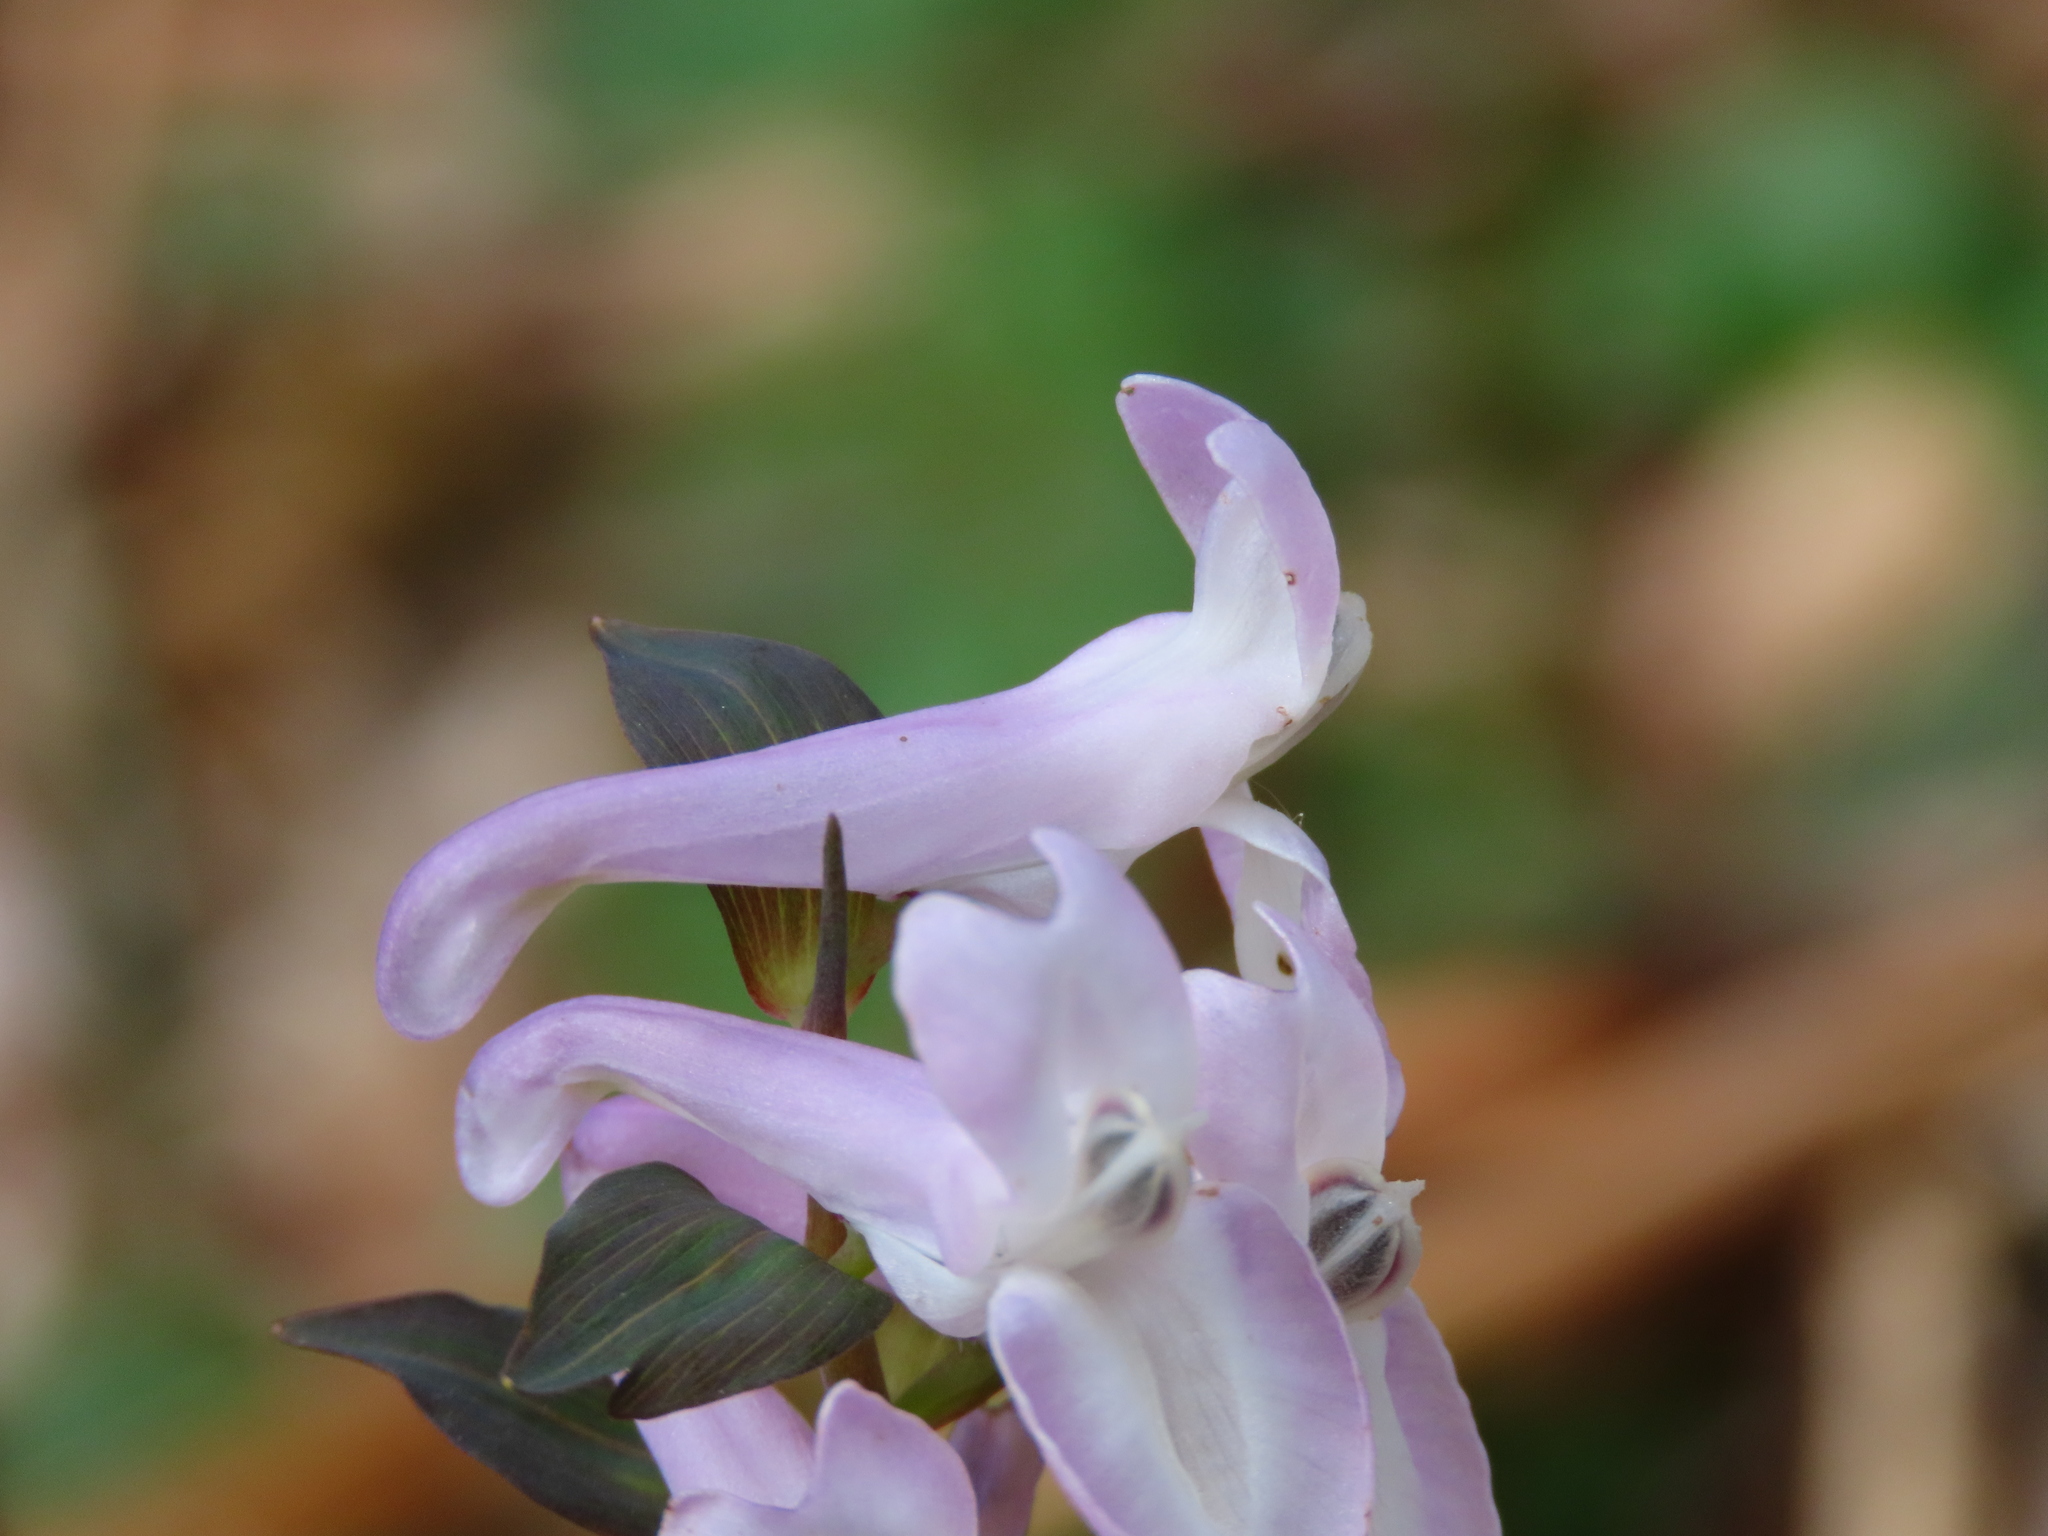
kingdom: Plantae
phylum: Tracheophyta
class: Magnoliopsida
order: Ranunculales
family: Papaveraceae
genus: Corydalis
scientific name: Corydalis cava
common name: Hollowroot
